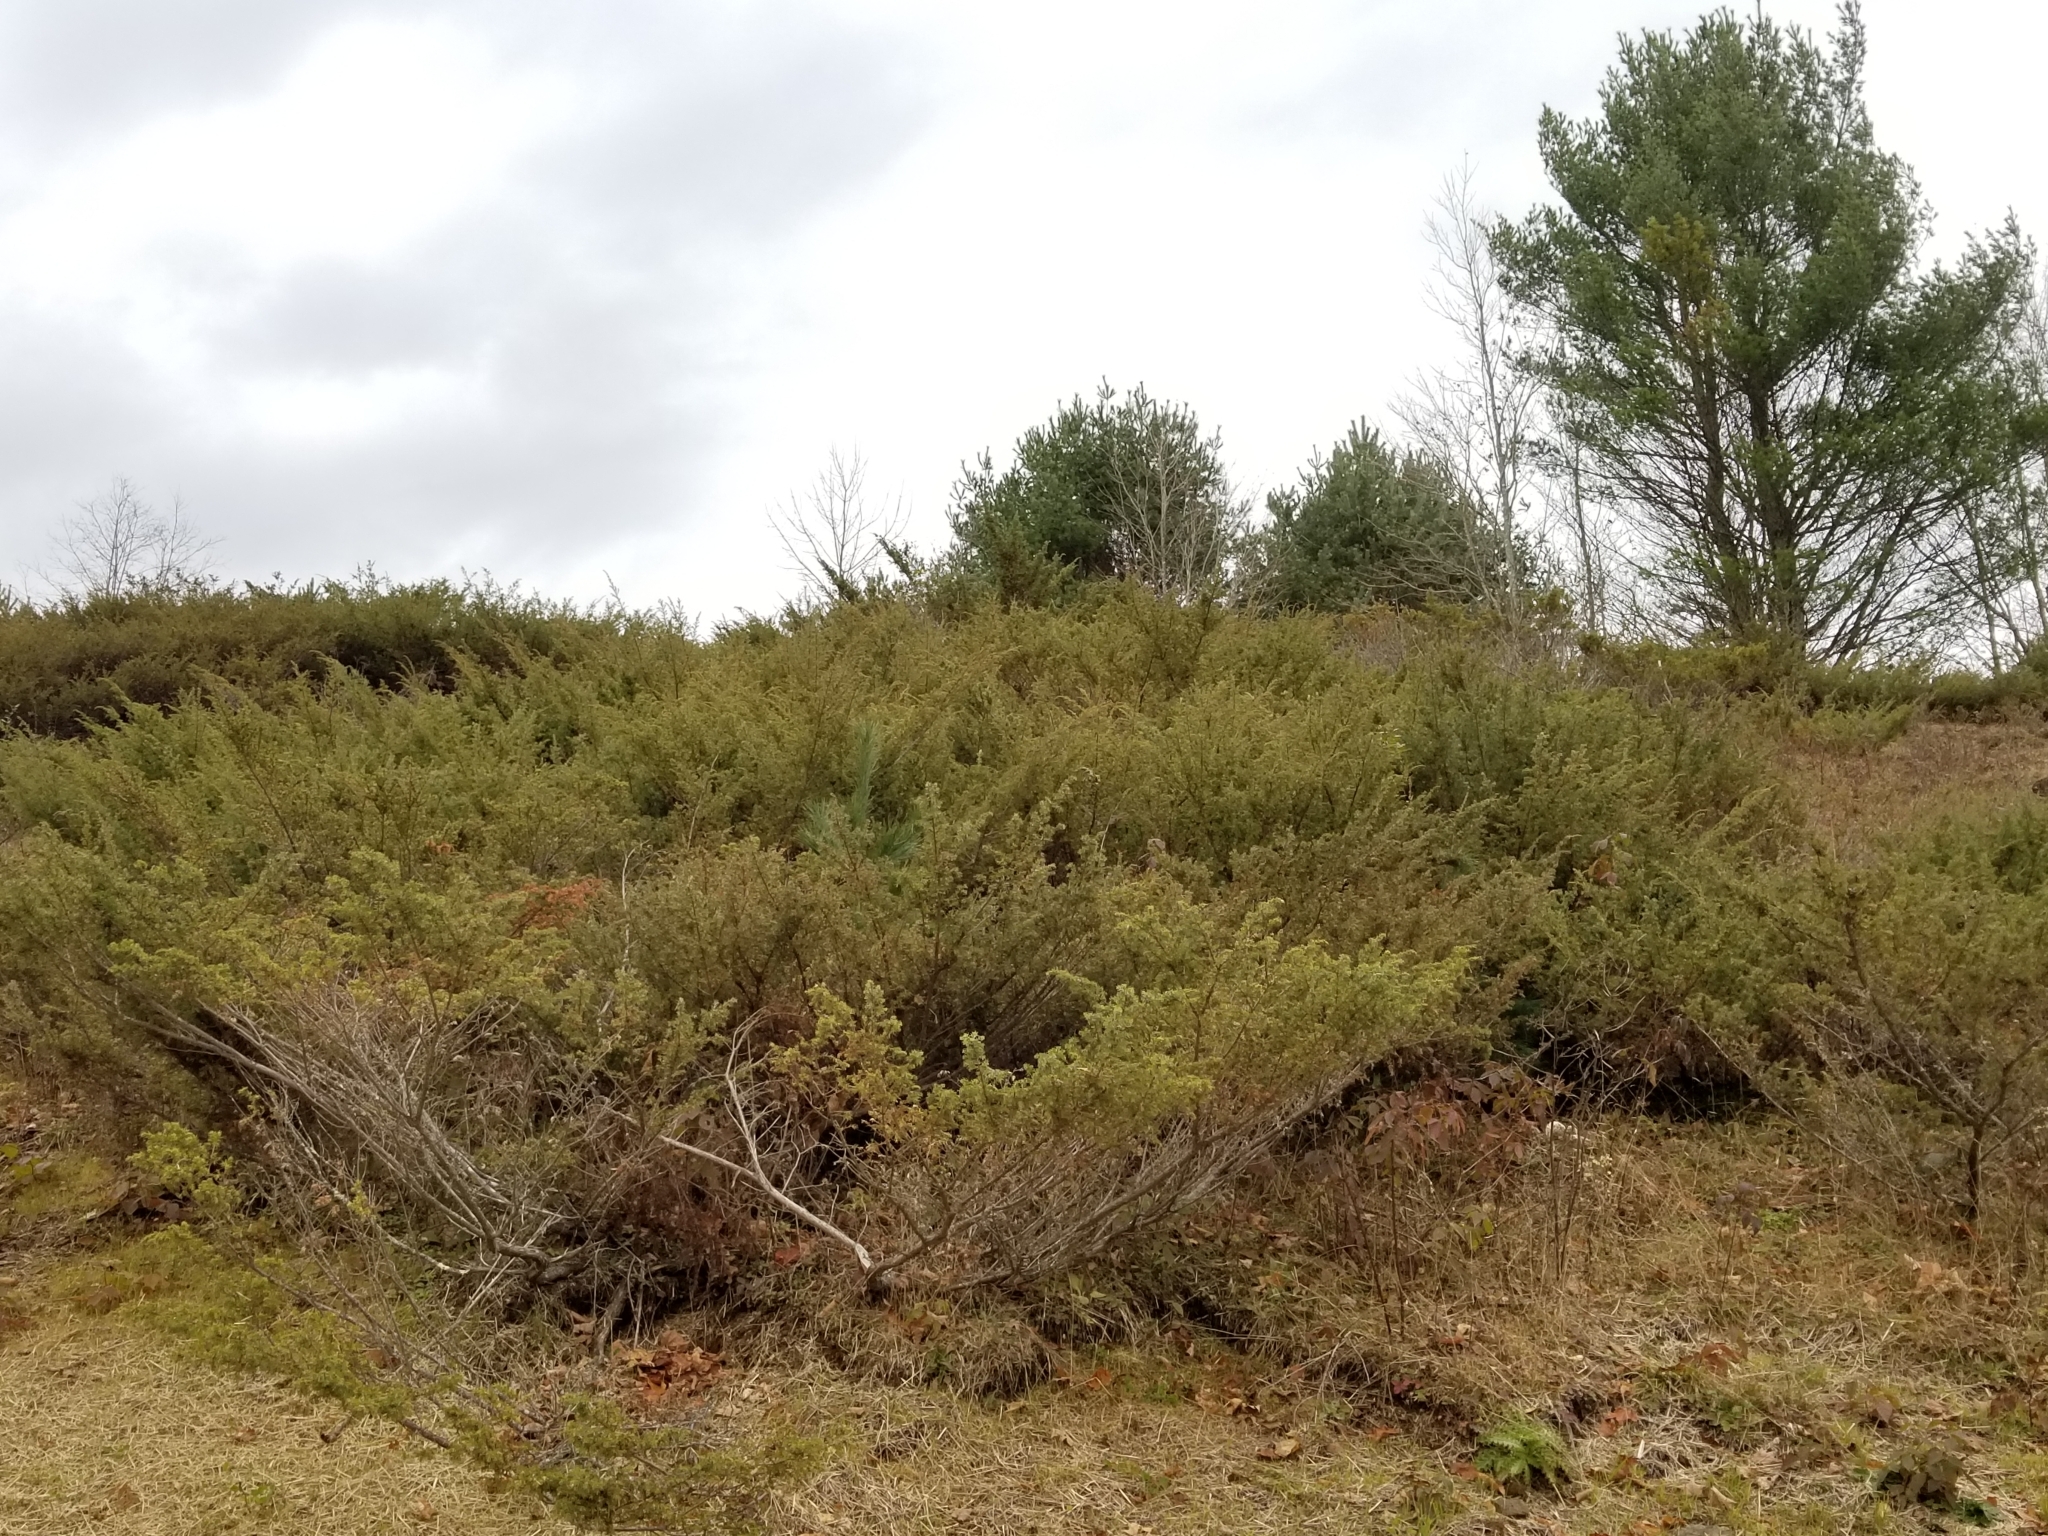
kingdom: Plantae
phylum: Tracheophyta
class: Pinopsida
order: Pinales
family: Cupressaceae
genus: Juniperus
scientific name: Juniperus communis
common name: Common juniper
